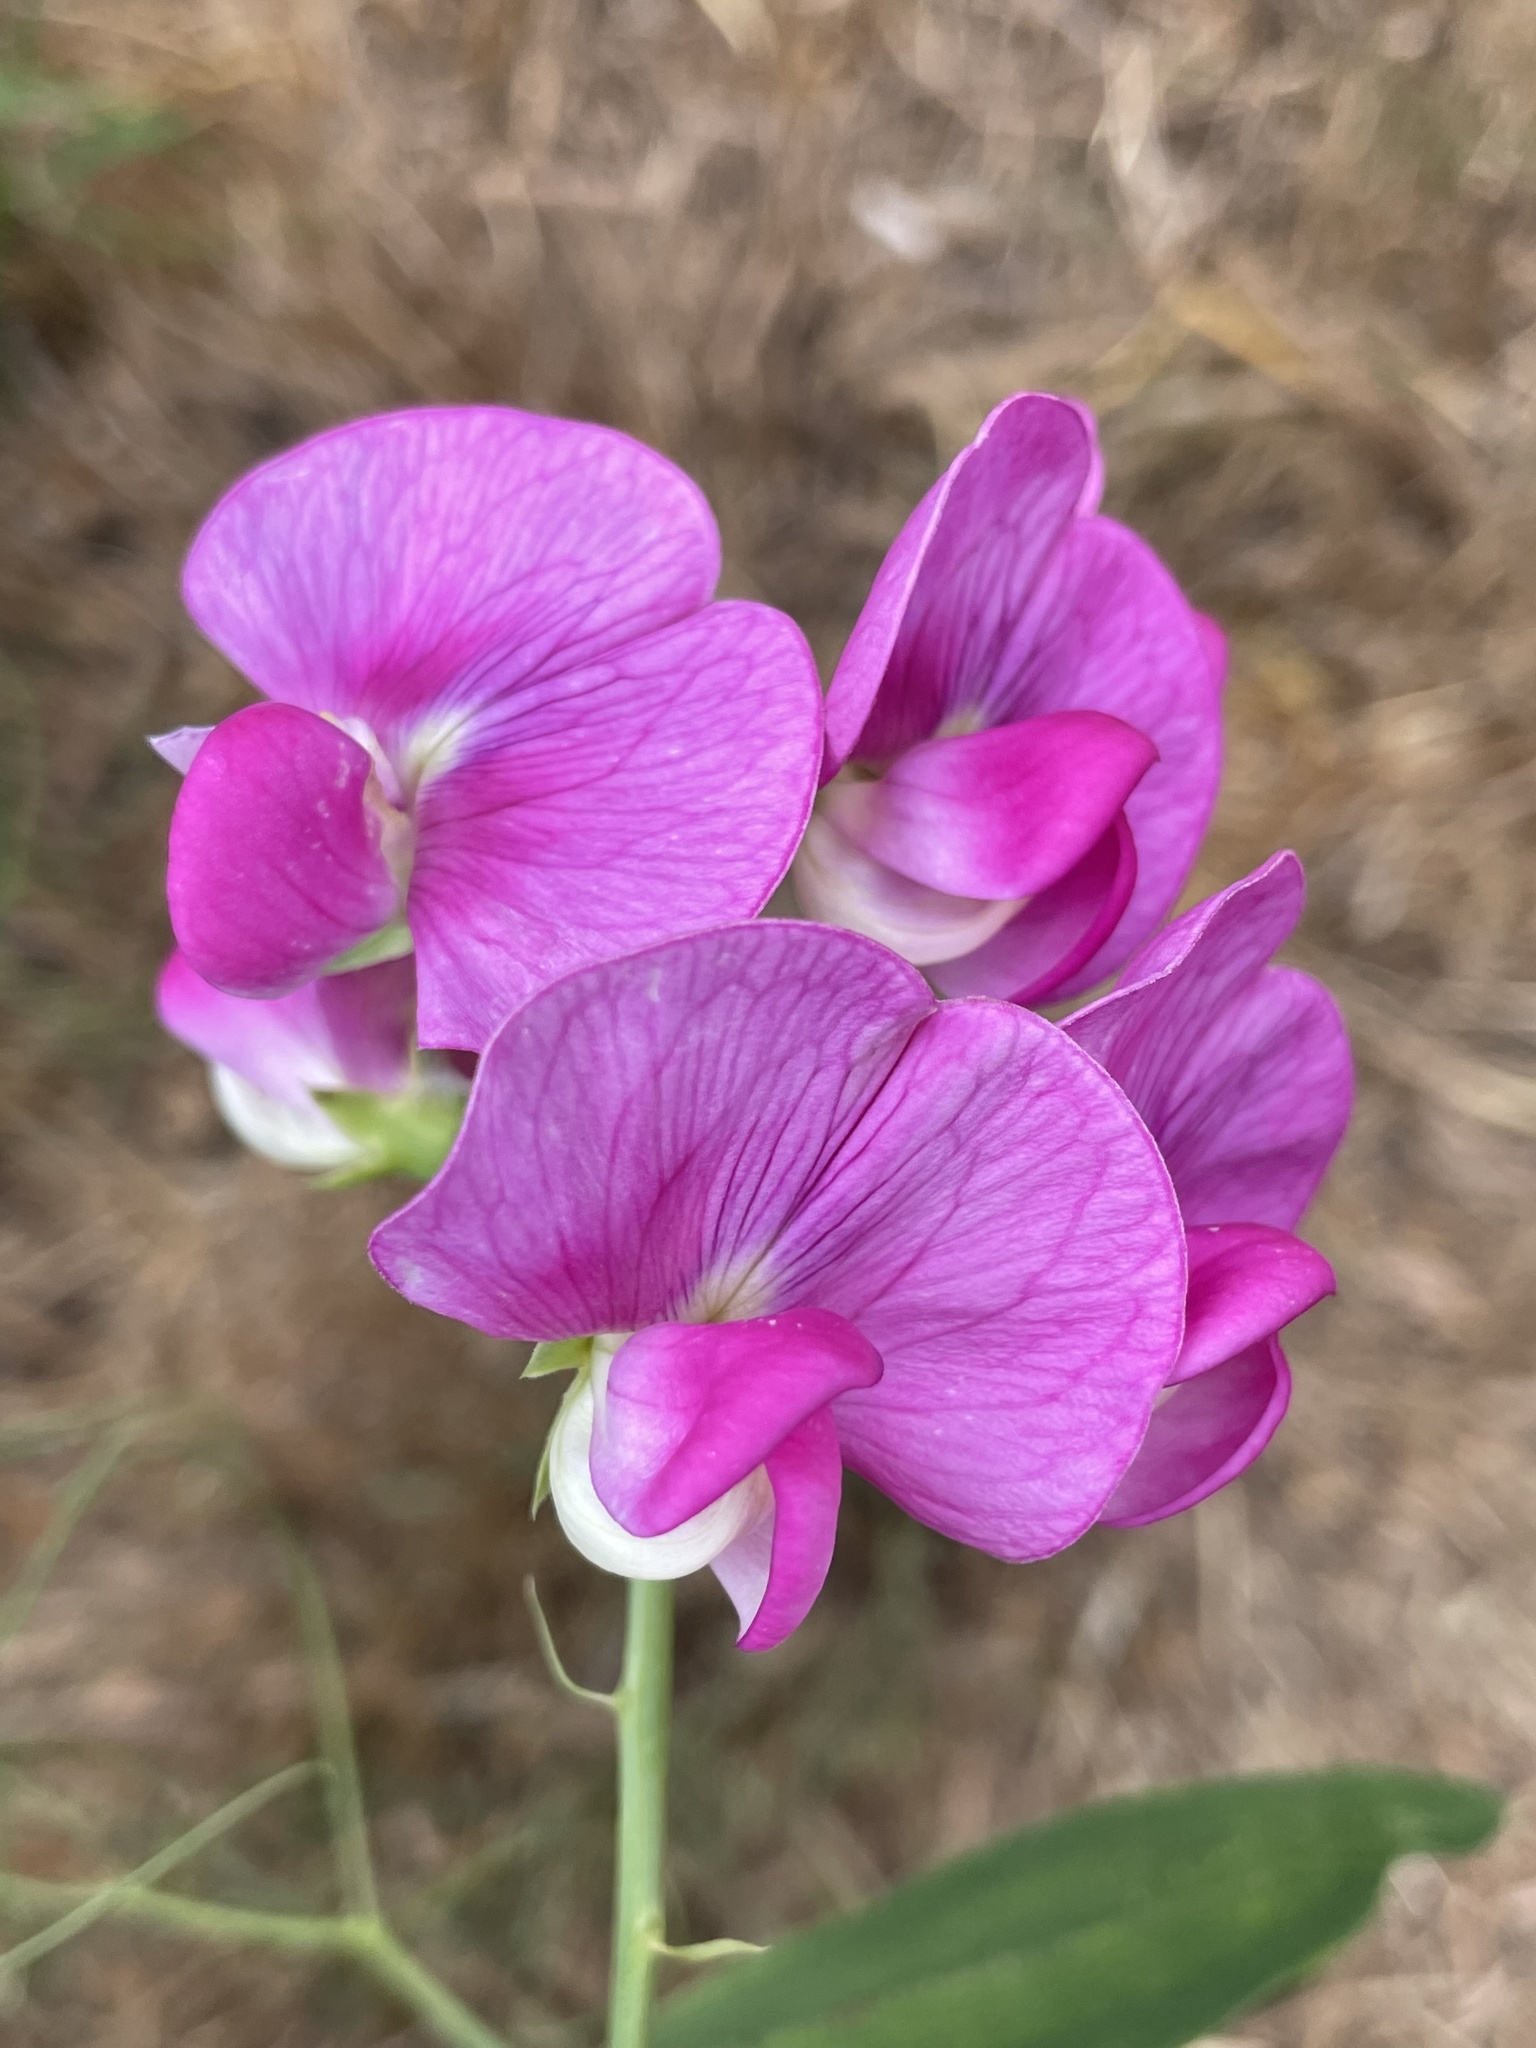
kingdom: Plantae
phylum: Tracheophyta
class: Magnoliopsida
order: Fabales
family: Fabaceae
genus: Lathyrus
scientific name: Lathyrus latifolius
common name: Perennial pea
